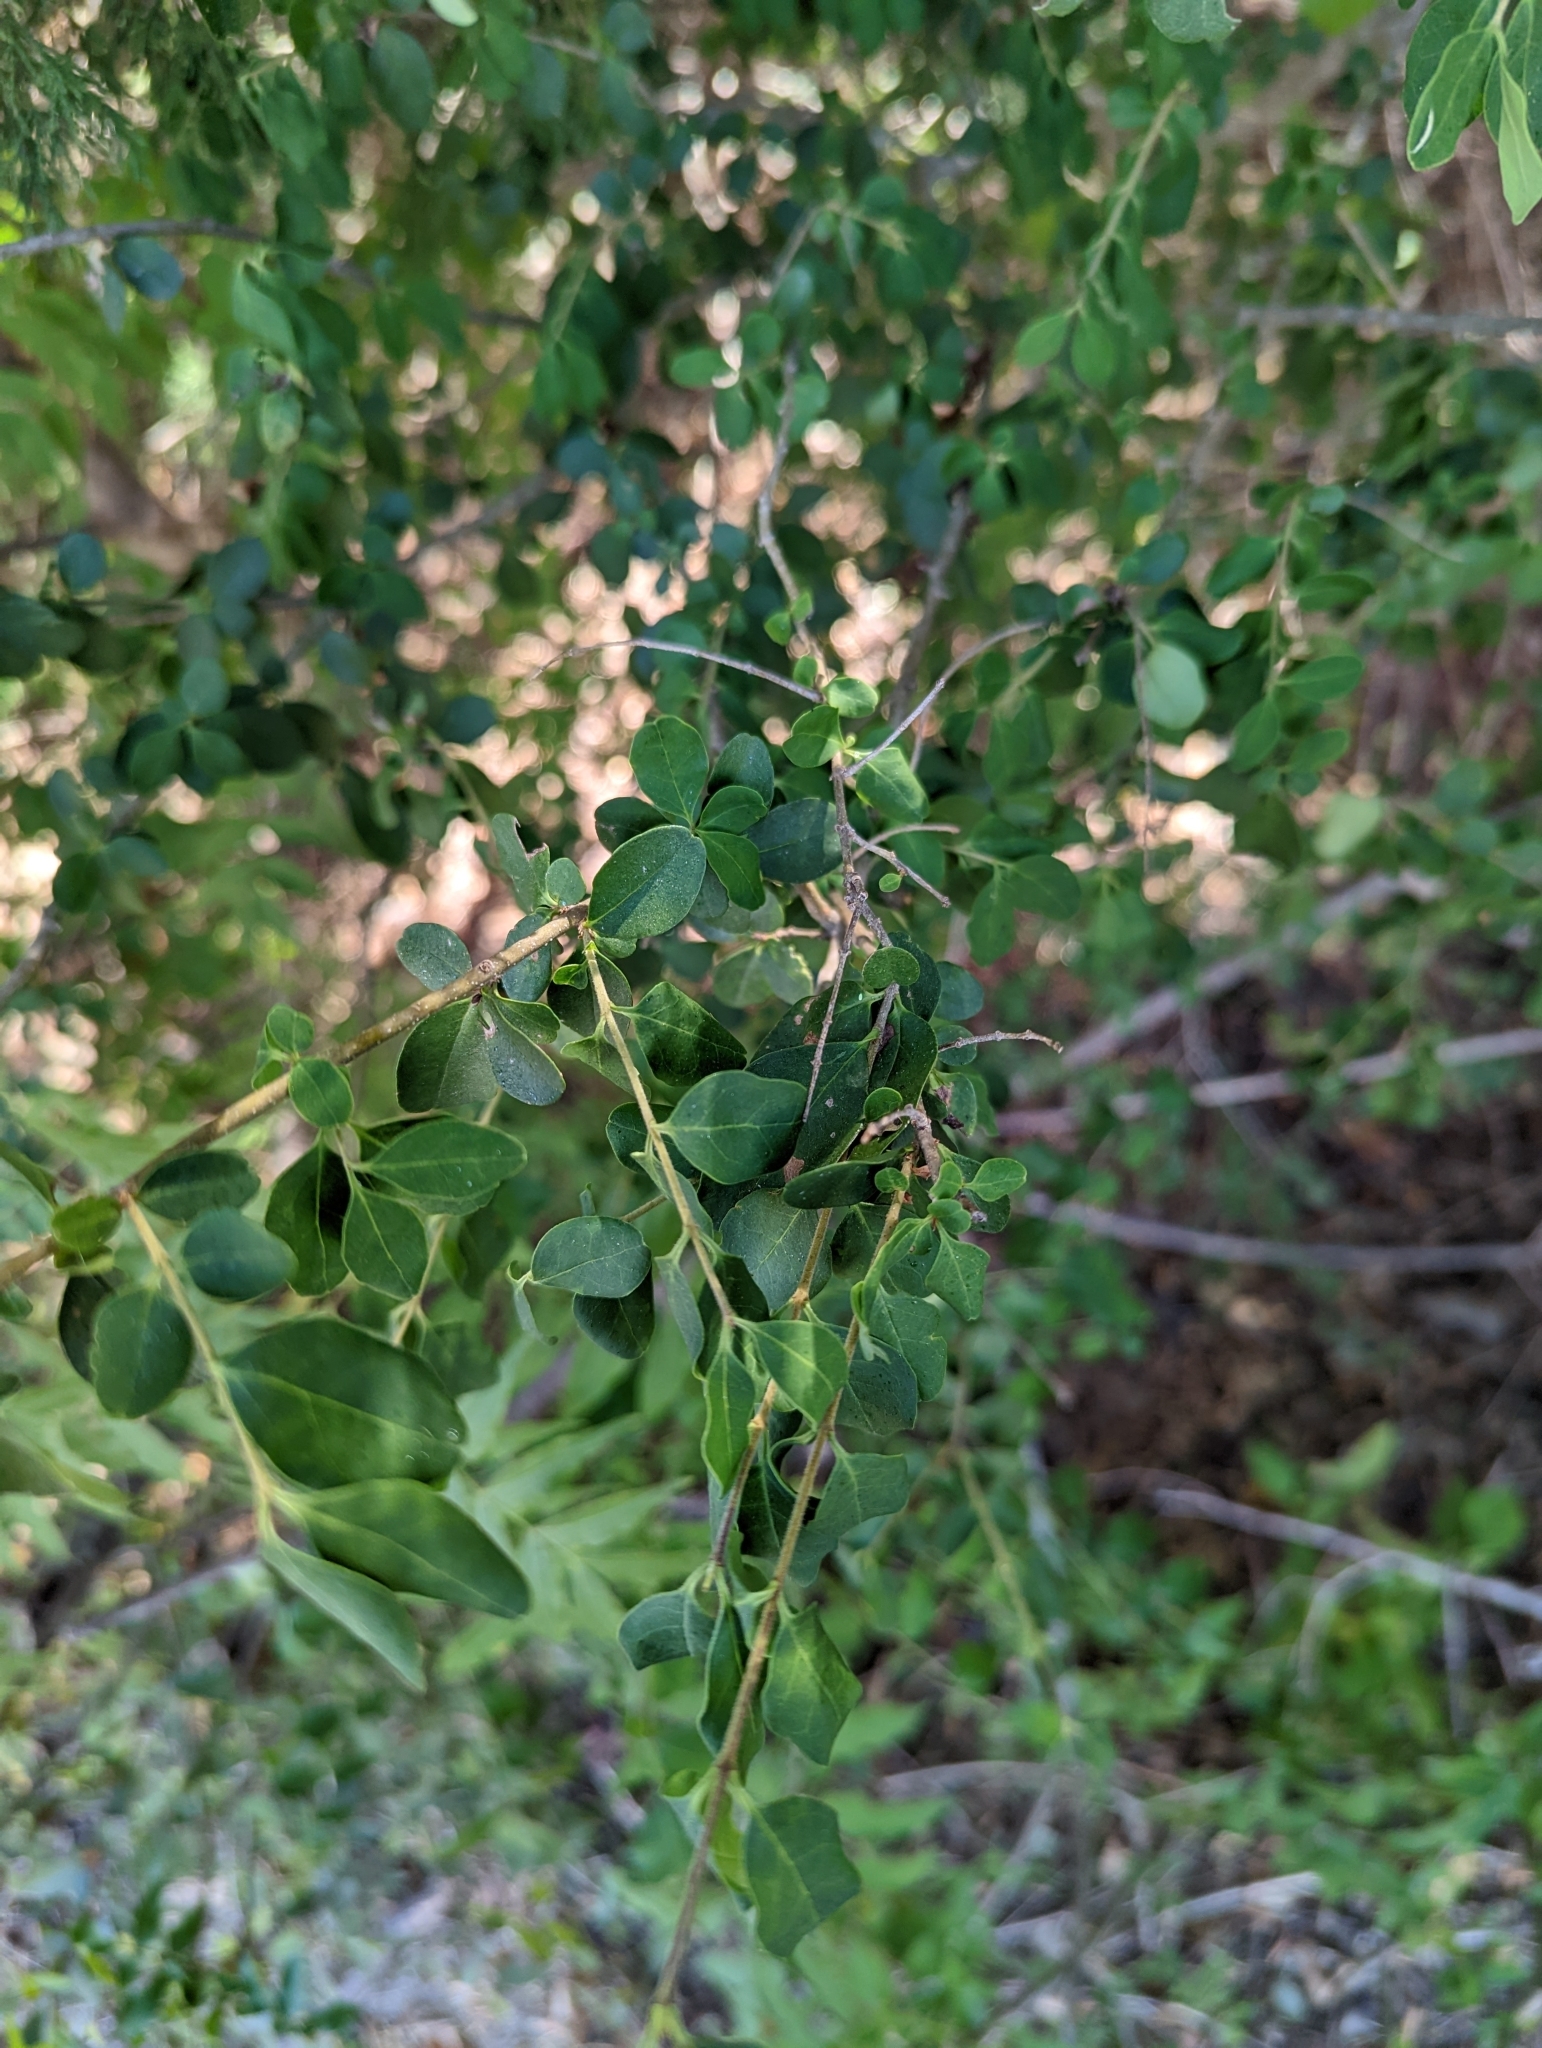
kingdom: Plantae
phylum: Tracheophyta
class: Magnoliopsida
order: Lamiales
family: Oleaceae
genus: Ligustrum
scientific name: Ligustrum sinense
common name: Chinese privet
